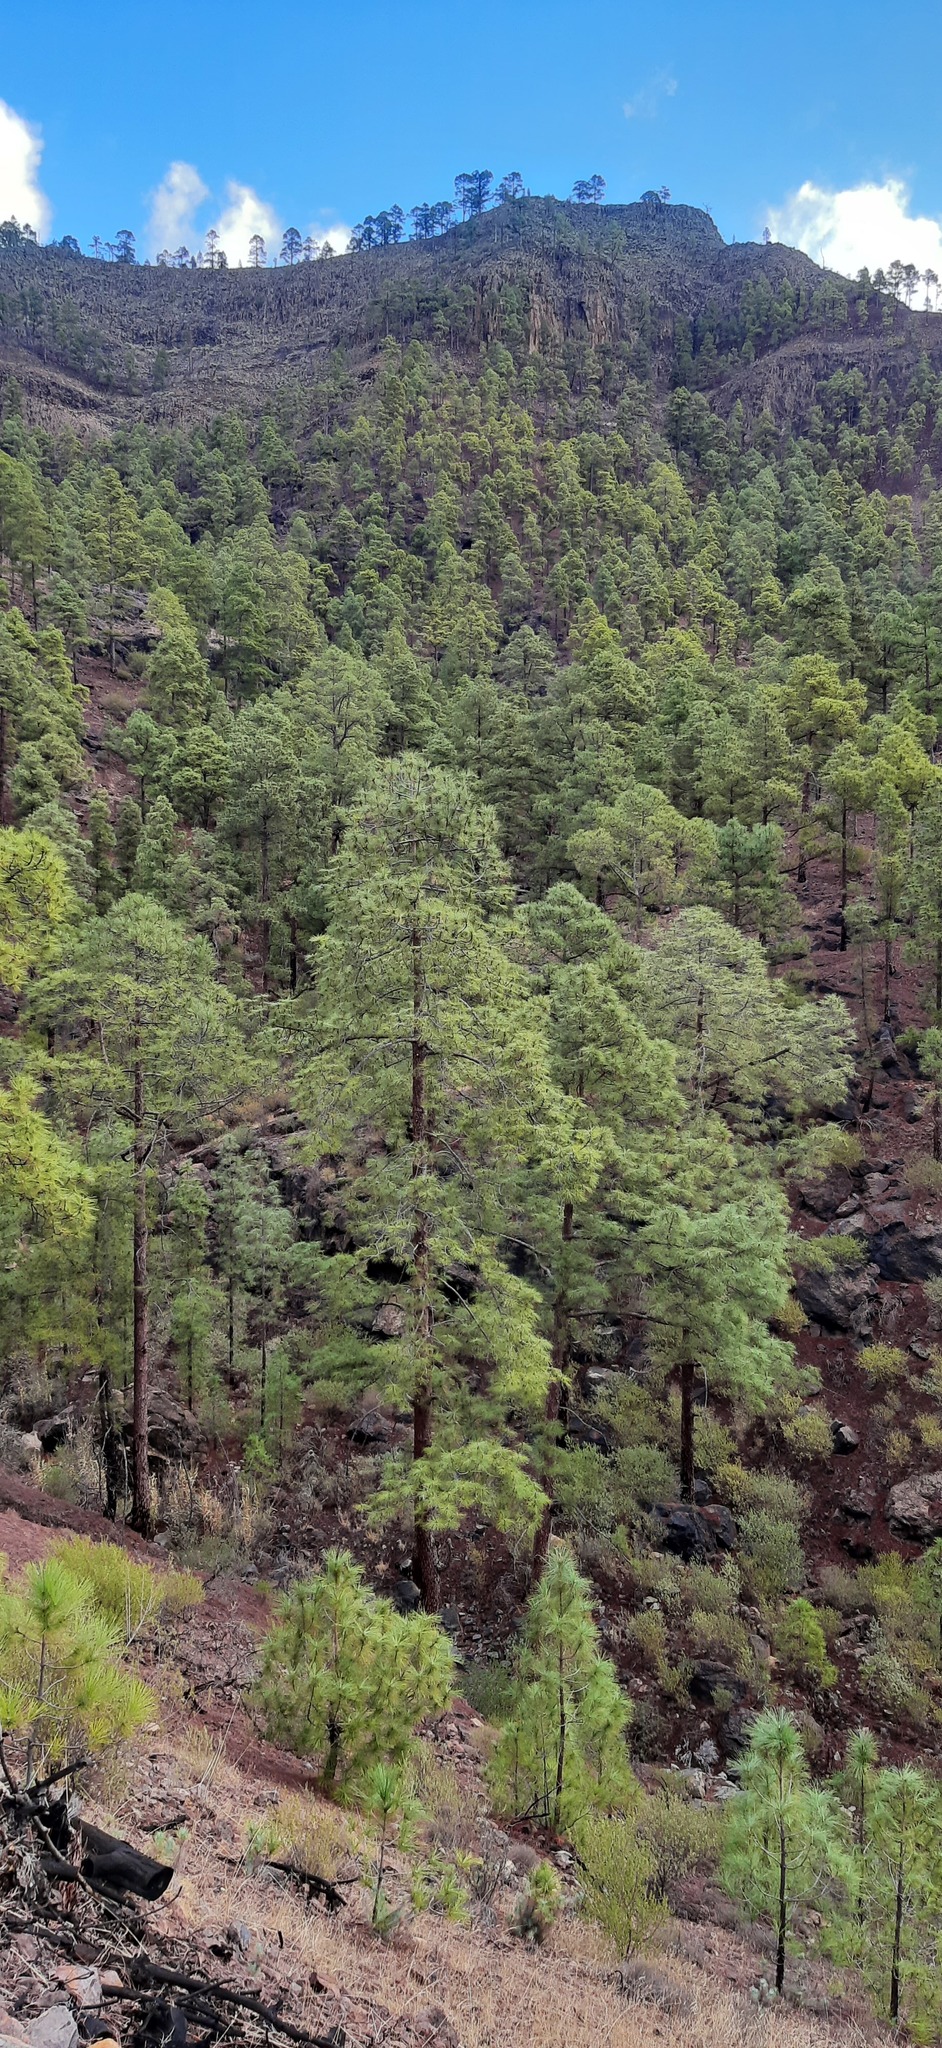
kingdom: Plantae
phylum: Tracheophyta
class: Pinopsida
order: Pinales
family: Pinaceae
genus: Pinus
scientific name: Pinus canariensis
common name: Canary islands pine
